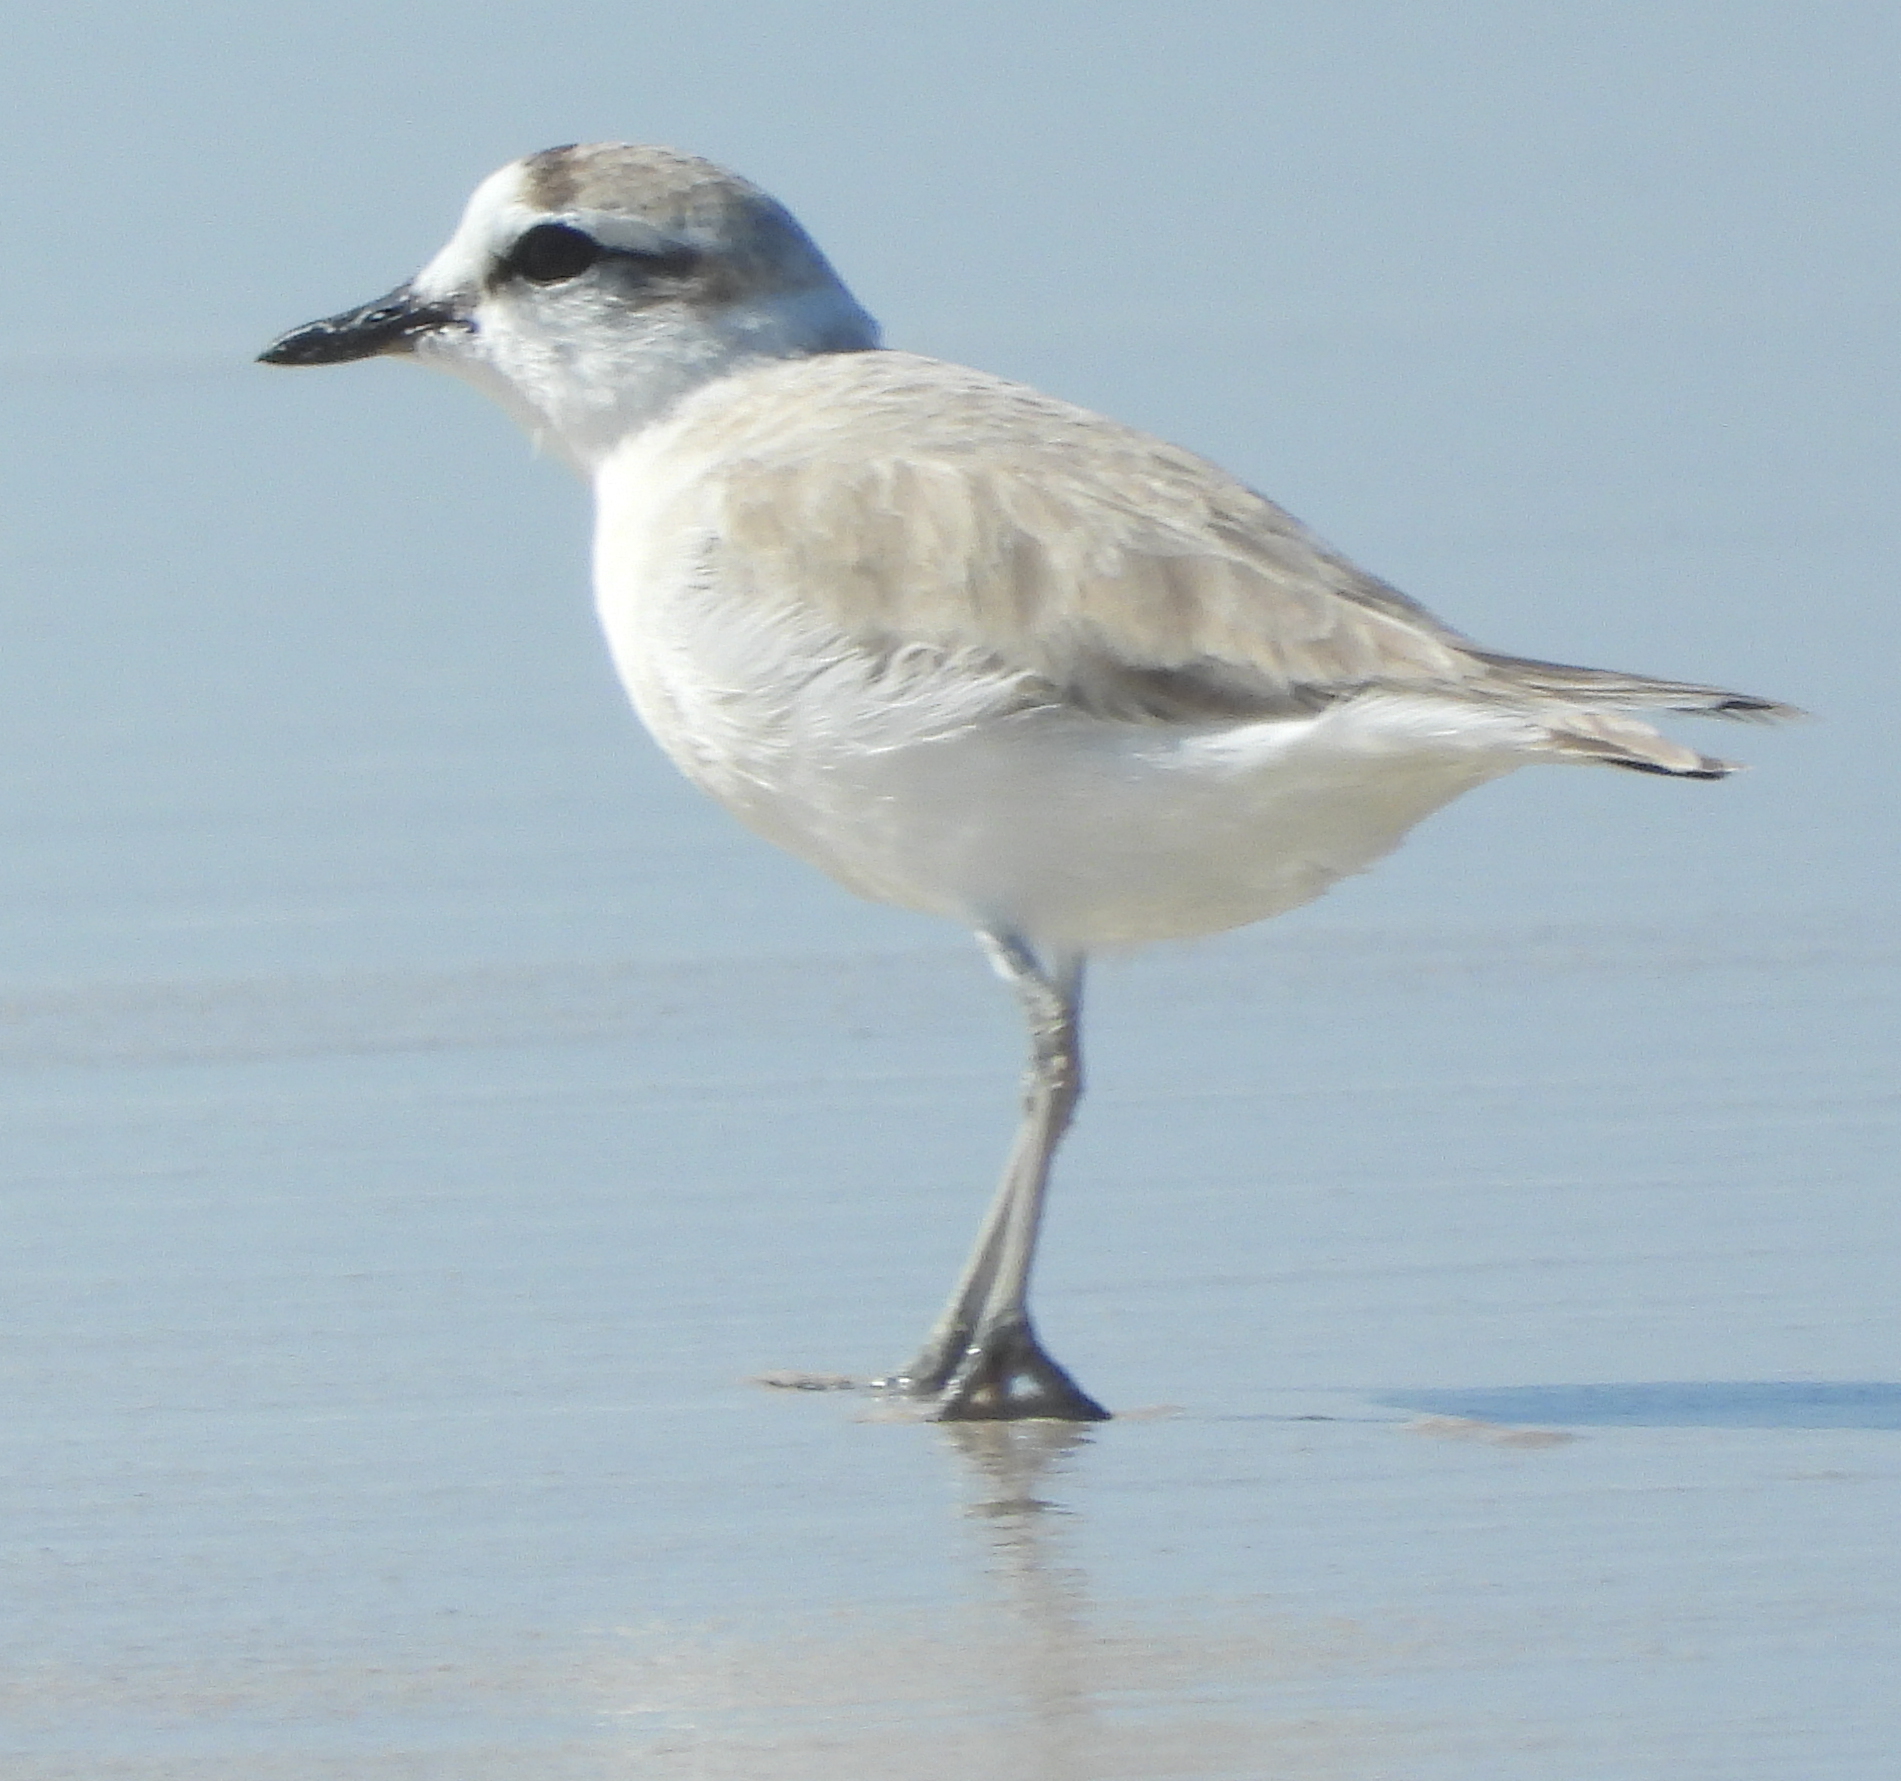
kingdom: Animalia
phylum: Chordata
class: Aves
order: Charadriiformes
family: Charadriidae
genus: Anarhynchus
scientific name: Anarhynchus
